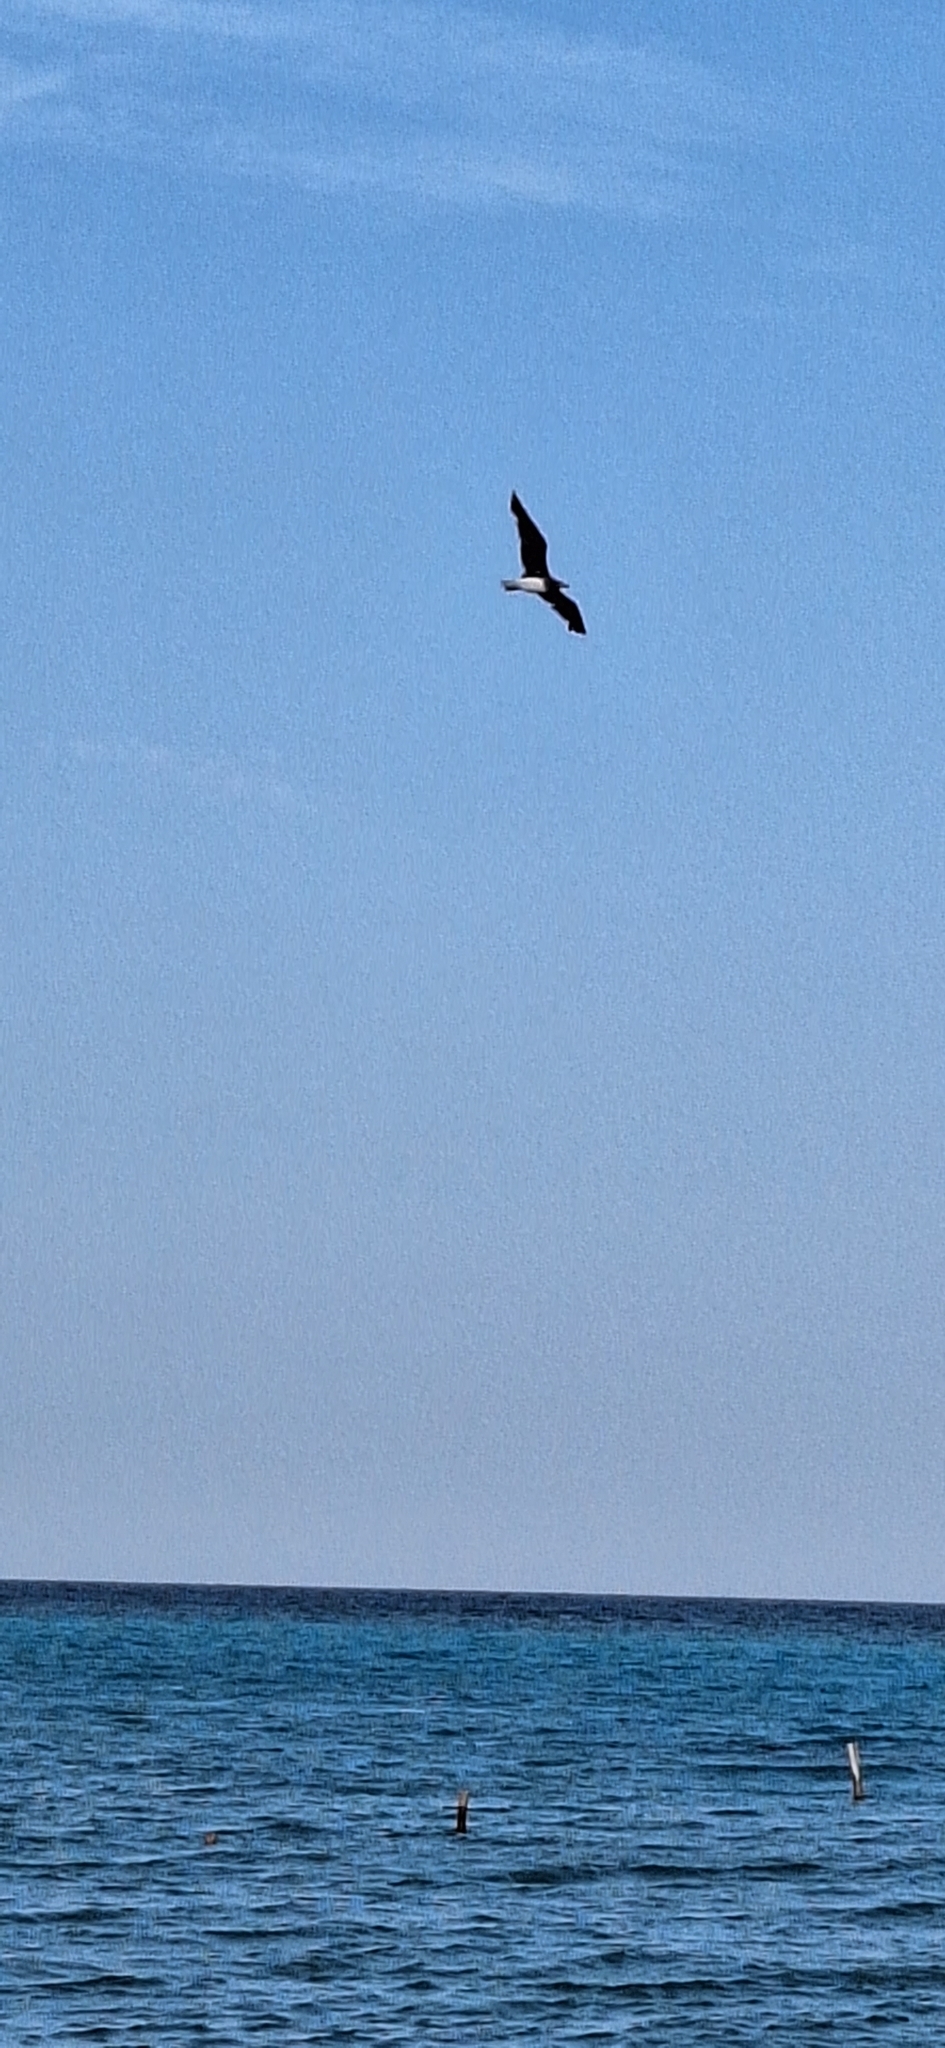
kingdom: Animalia
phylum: Chordata
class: Aves
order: Charadriiformes
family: Laridae
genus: Ichthyaetus
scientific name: Ichthyaetus hemprichii
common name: Sooty gull
